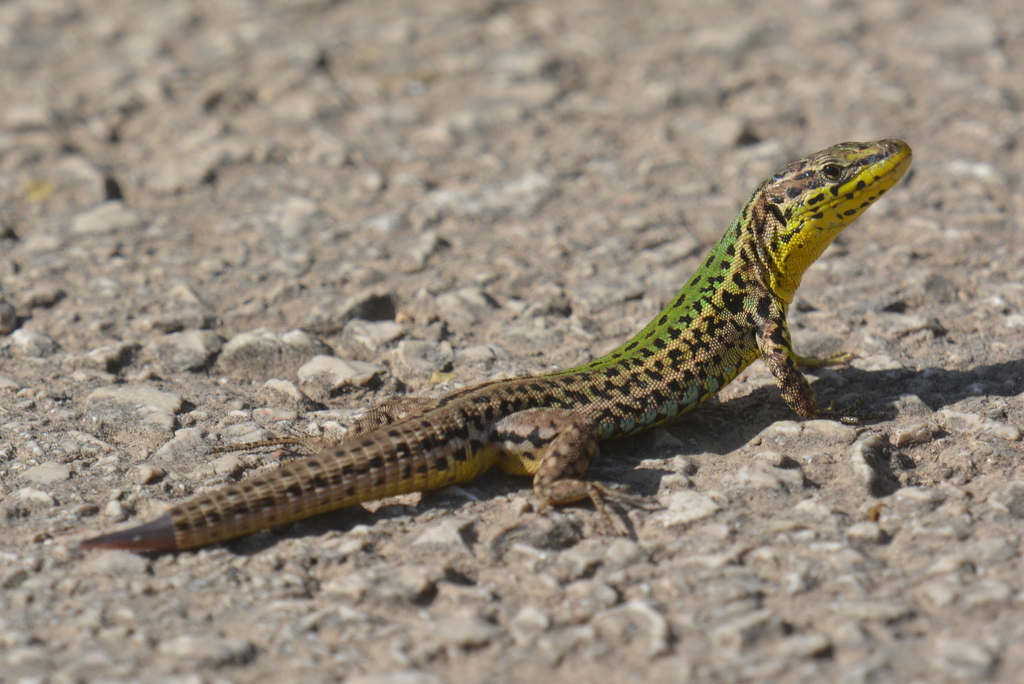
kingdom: Animalia
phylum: Chordata
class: Squamata
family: Lacertidae
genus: Podarcis
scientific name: Podarcis melisellensis
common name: Dalmatian wall lizard
